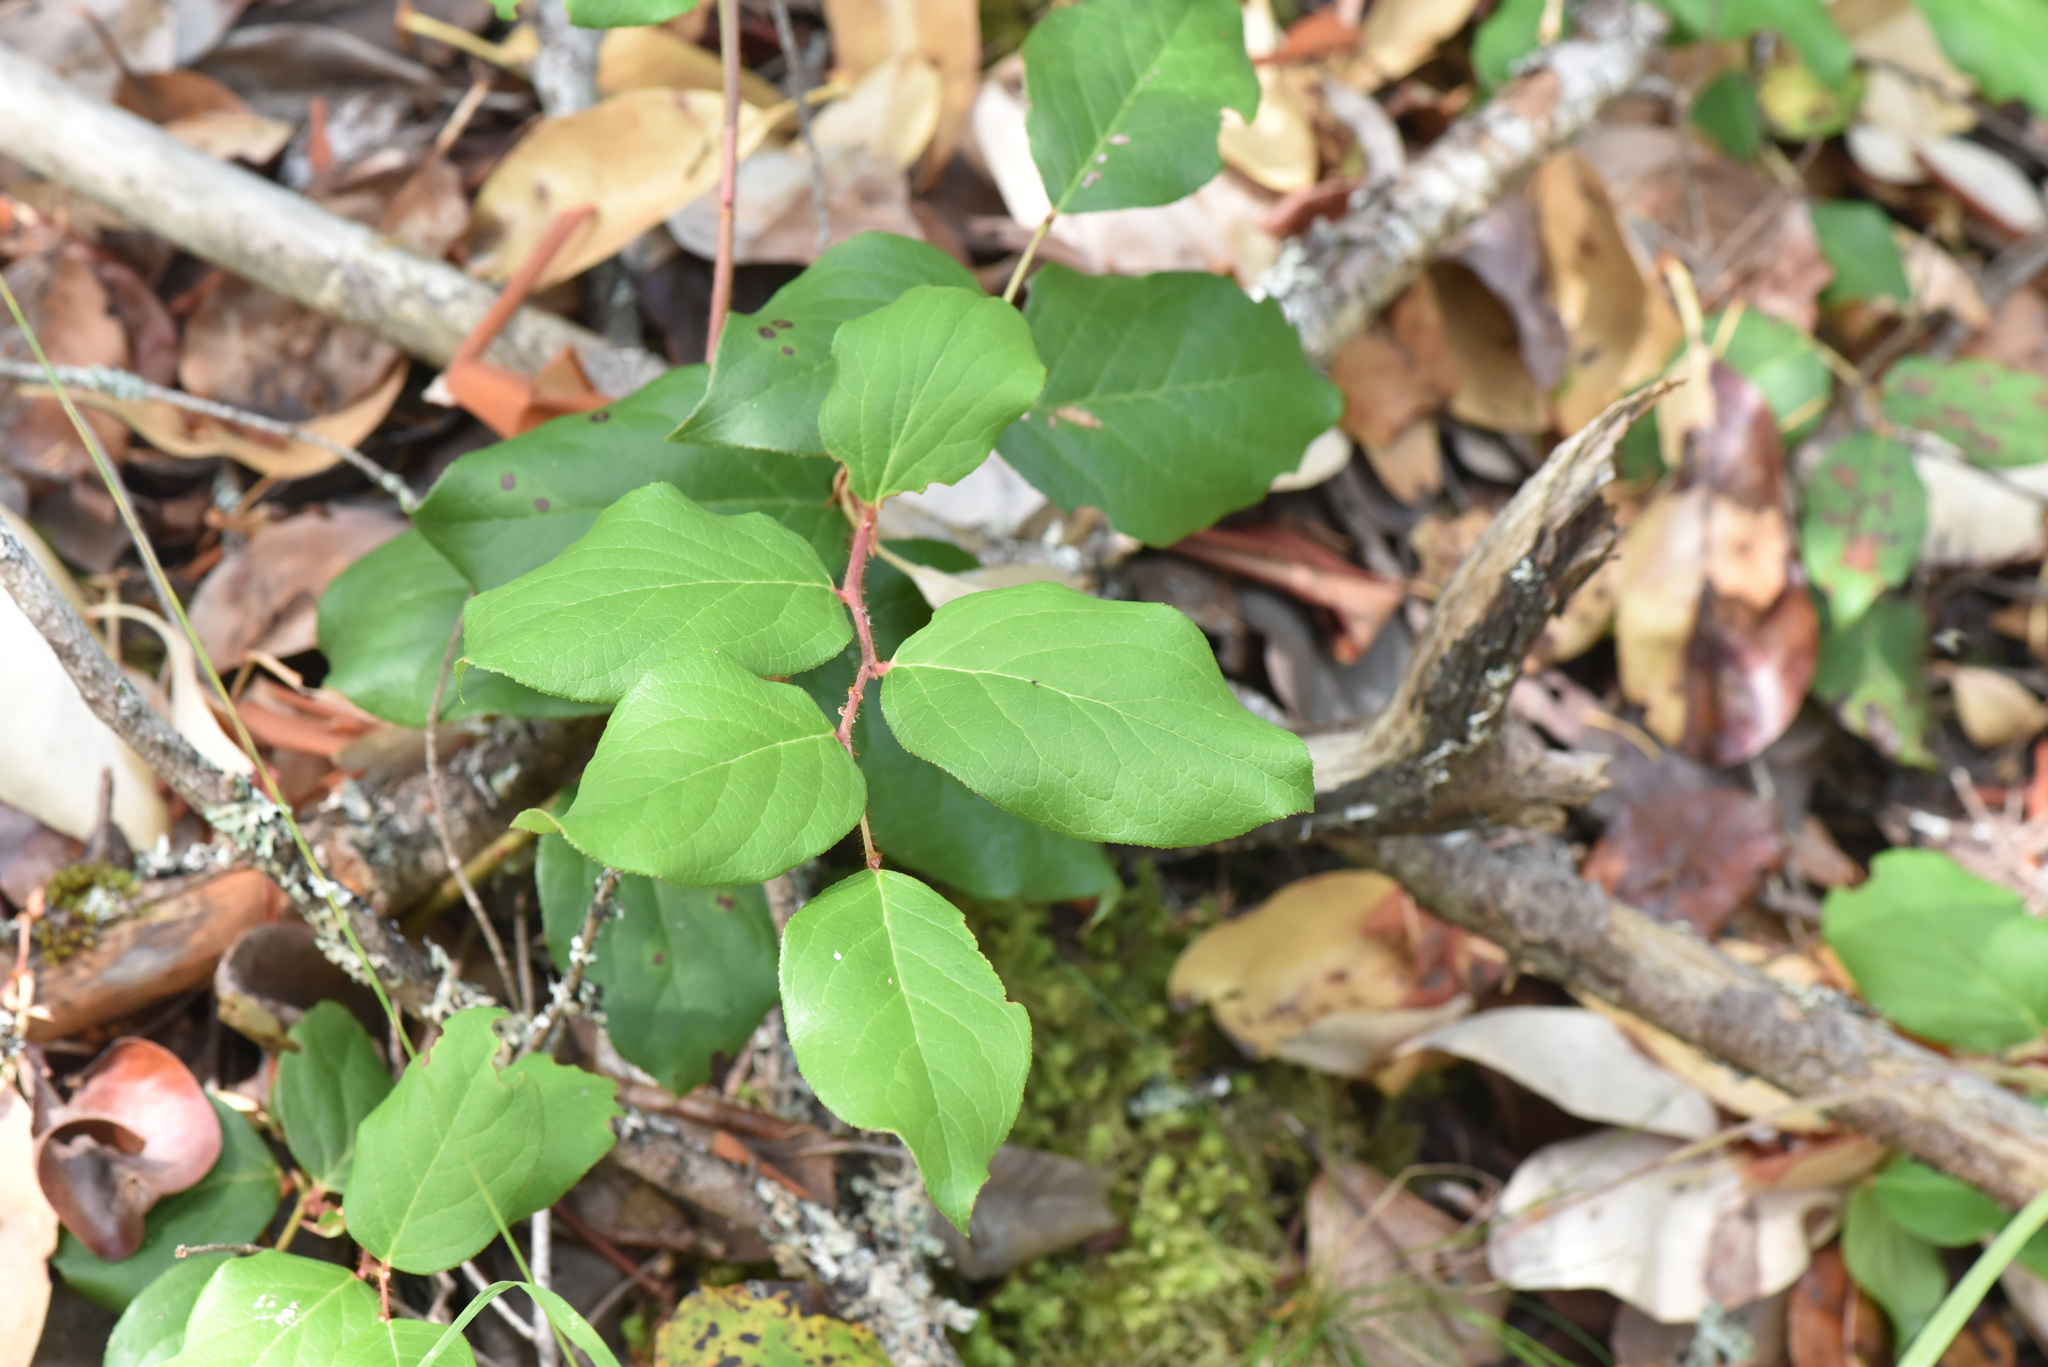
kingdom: Plantae
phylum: Tracheophyta
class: Magnoliopsida
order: Ericales
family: Ericaceae
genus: Gaultheria
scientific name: Gaultheria shallon
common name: Shallon
